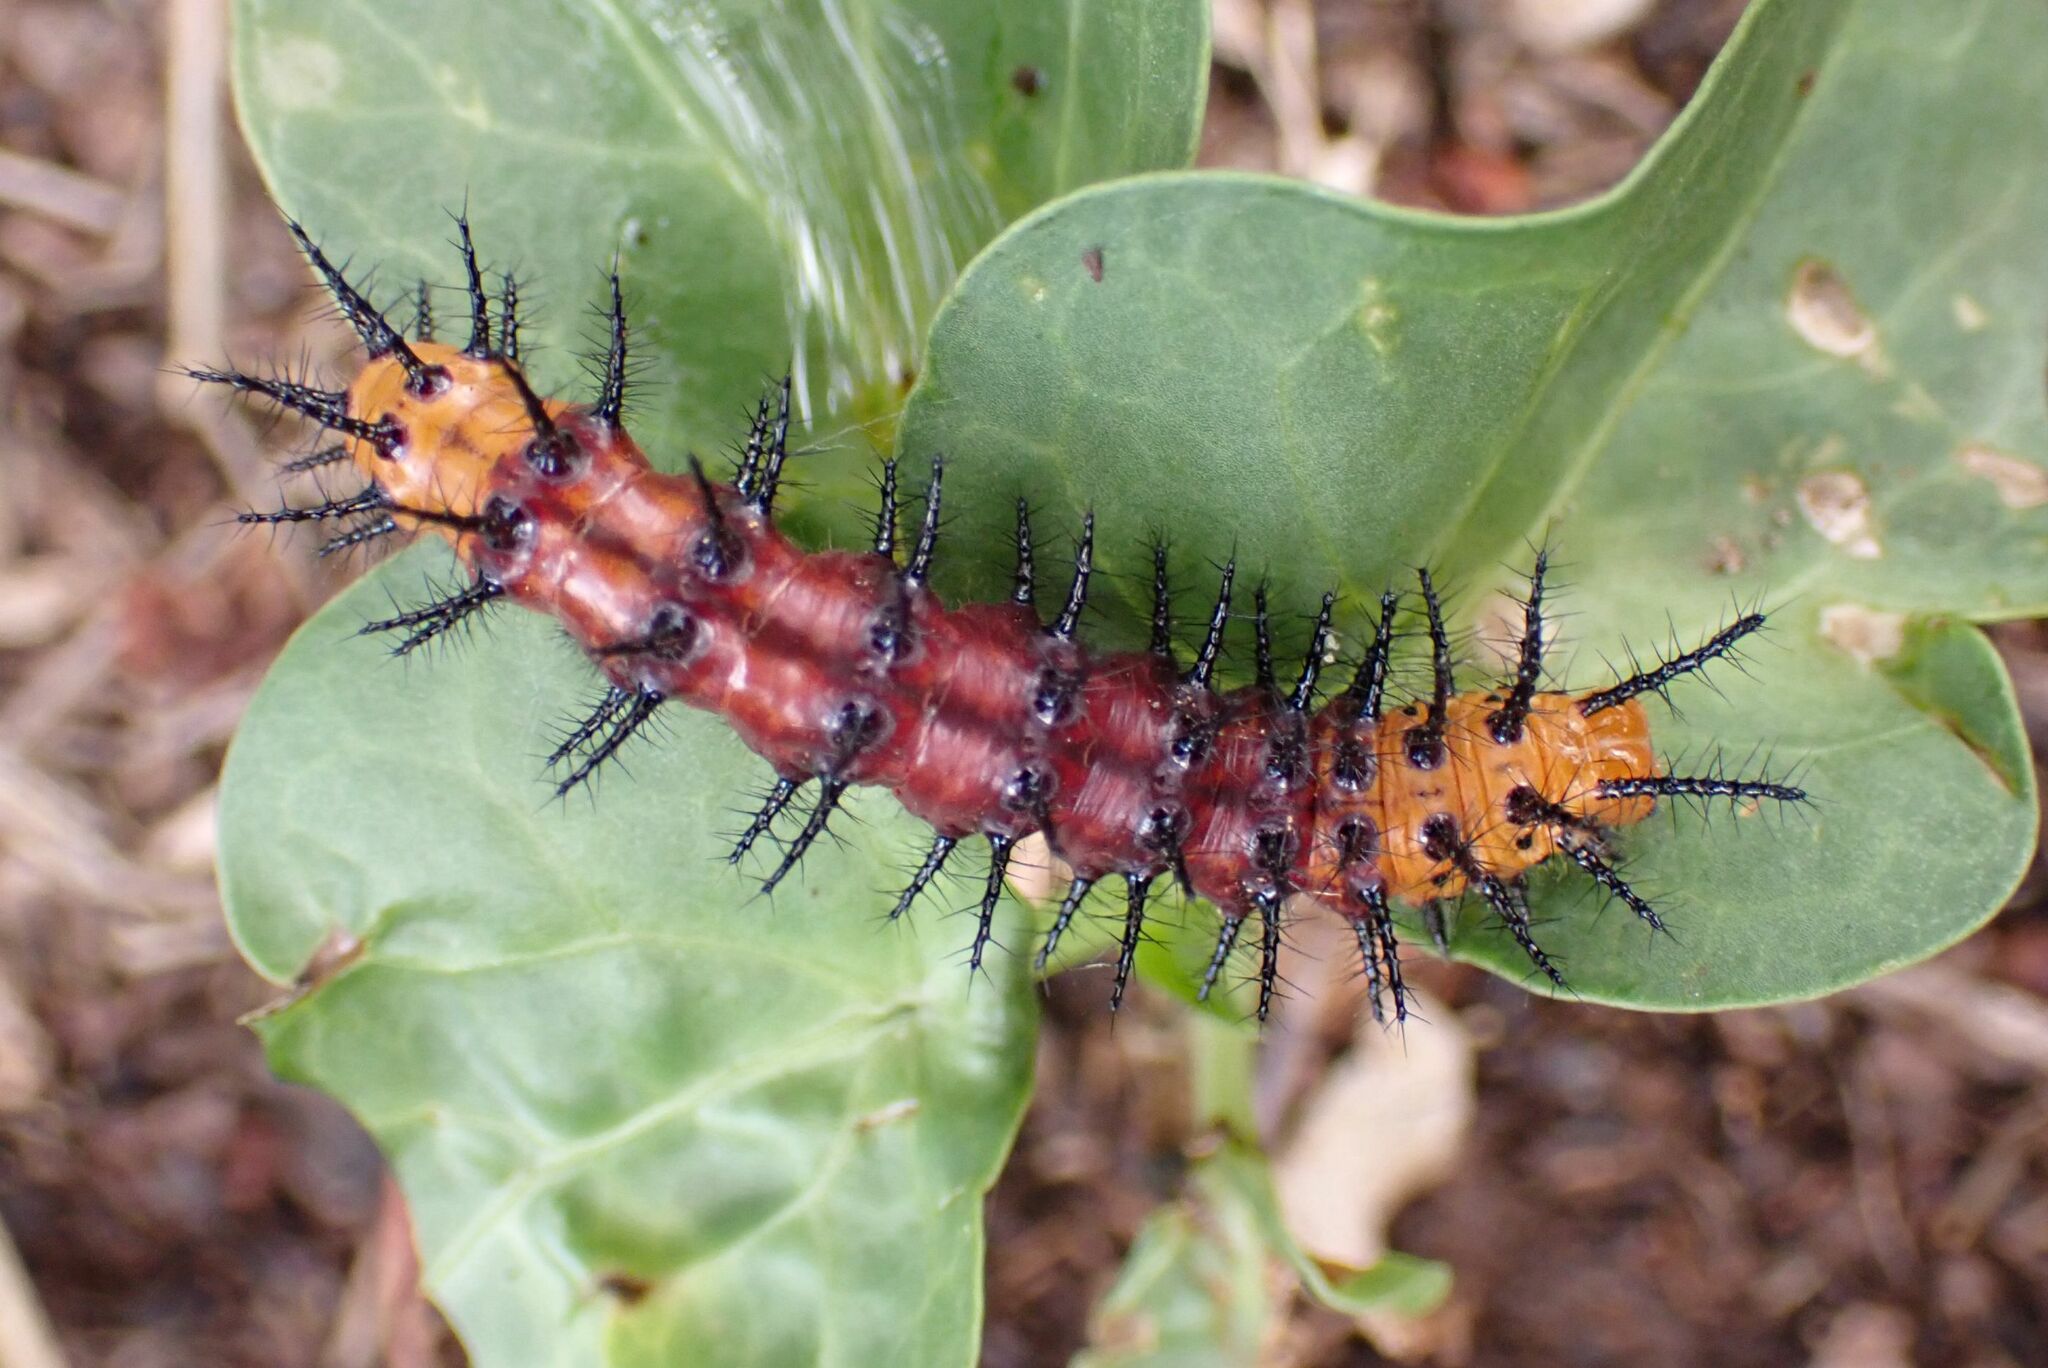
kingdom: Animalia
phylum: Arthropoda
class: Insecta
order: Lepidoptera
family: Nymphalidae
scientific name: Nymphalidae
